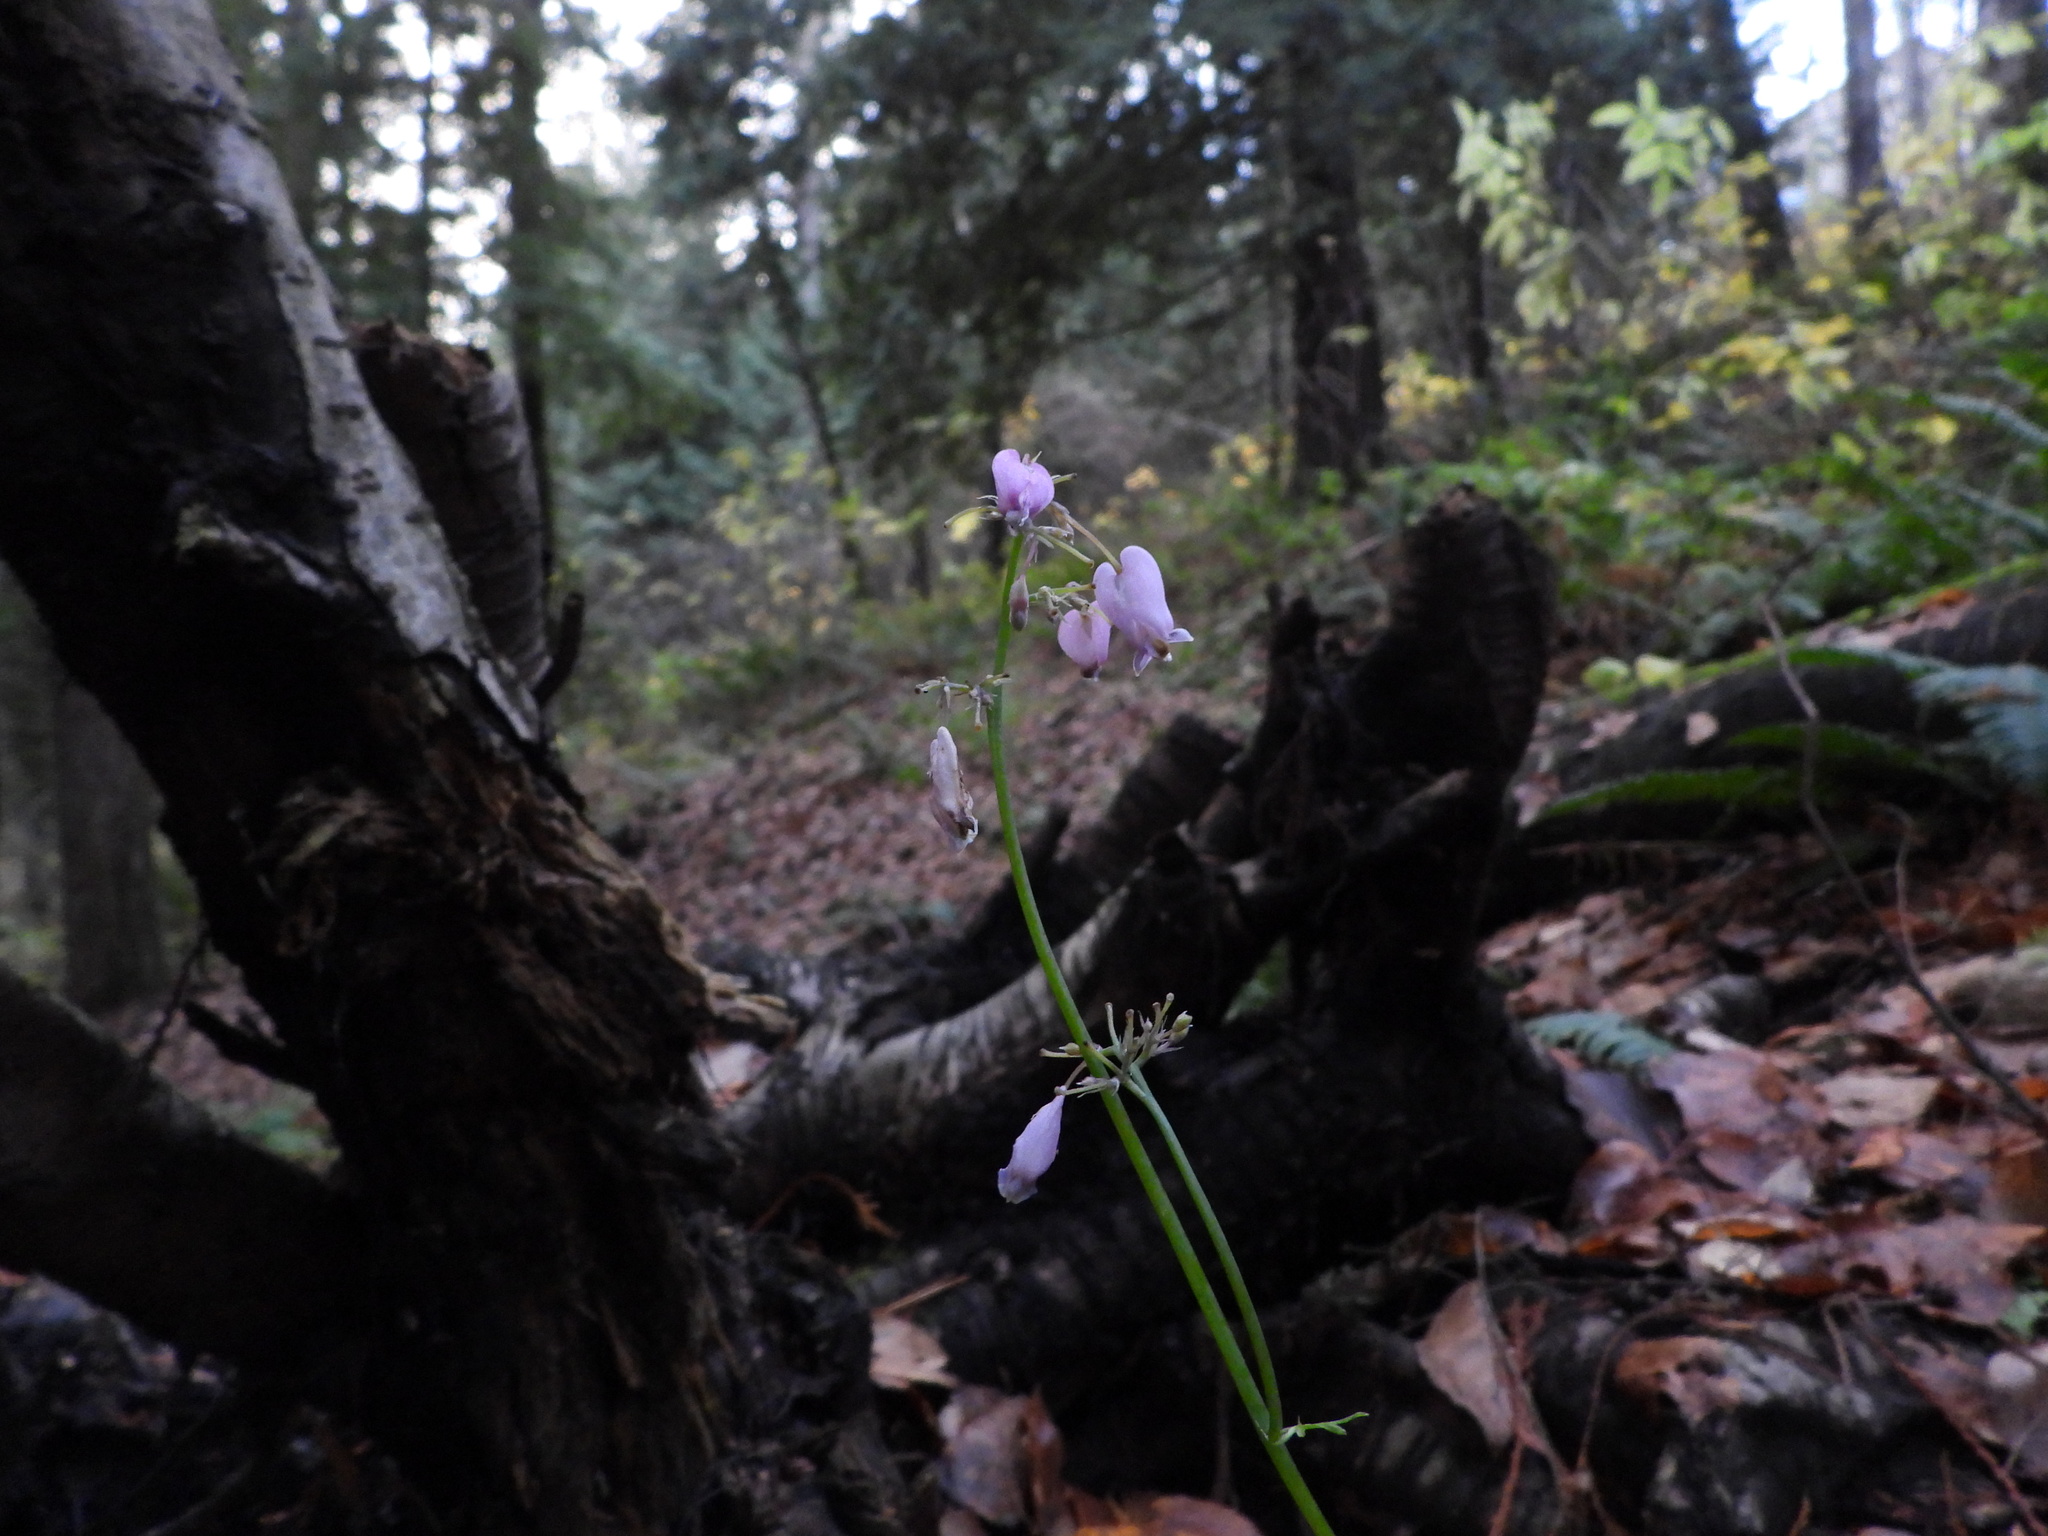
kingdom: Plantae
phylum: Tracheophyta
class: Magnoliopsida
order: Ranunculales
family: Papaveraceae
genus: Dicentra
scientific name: Dicentra formosa
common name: Bleeding-heart
